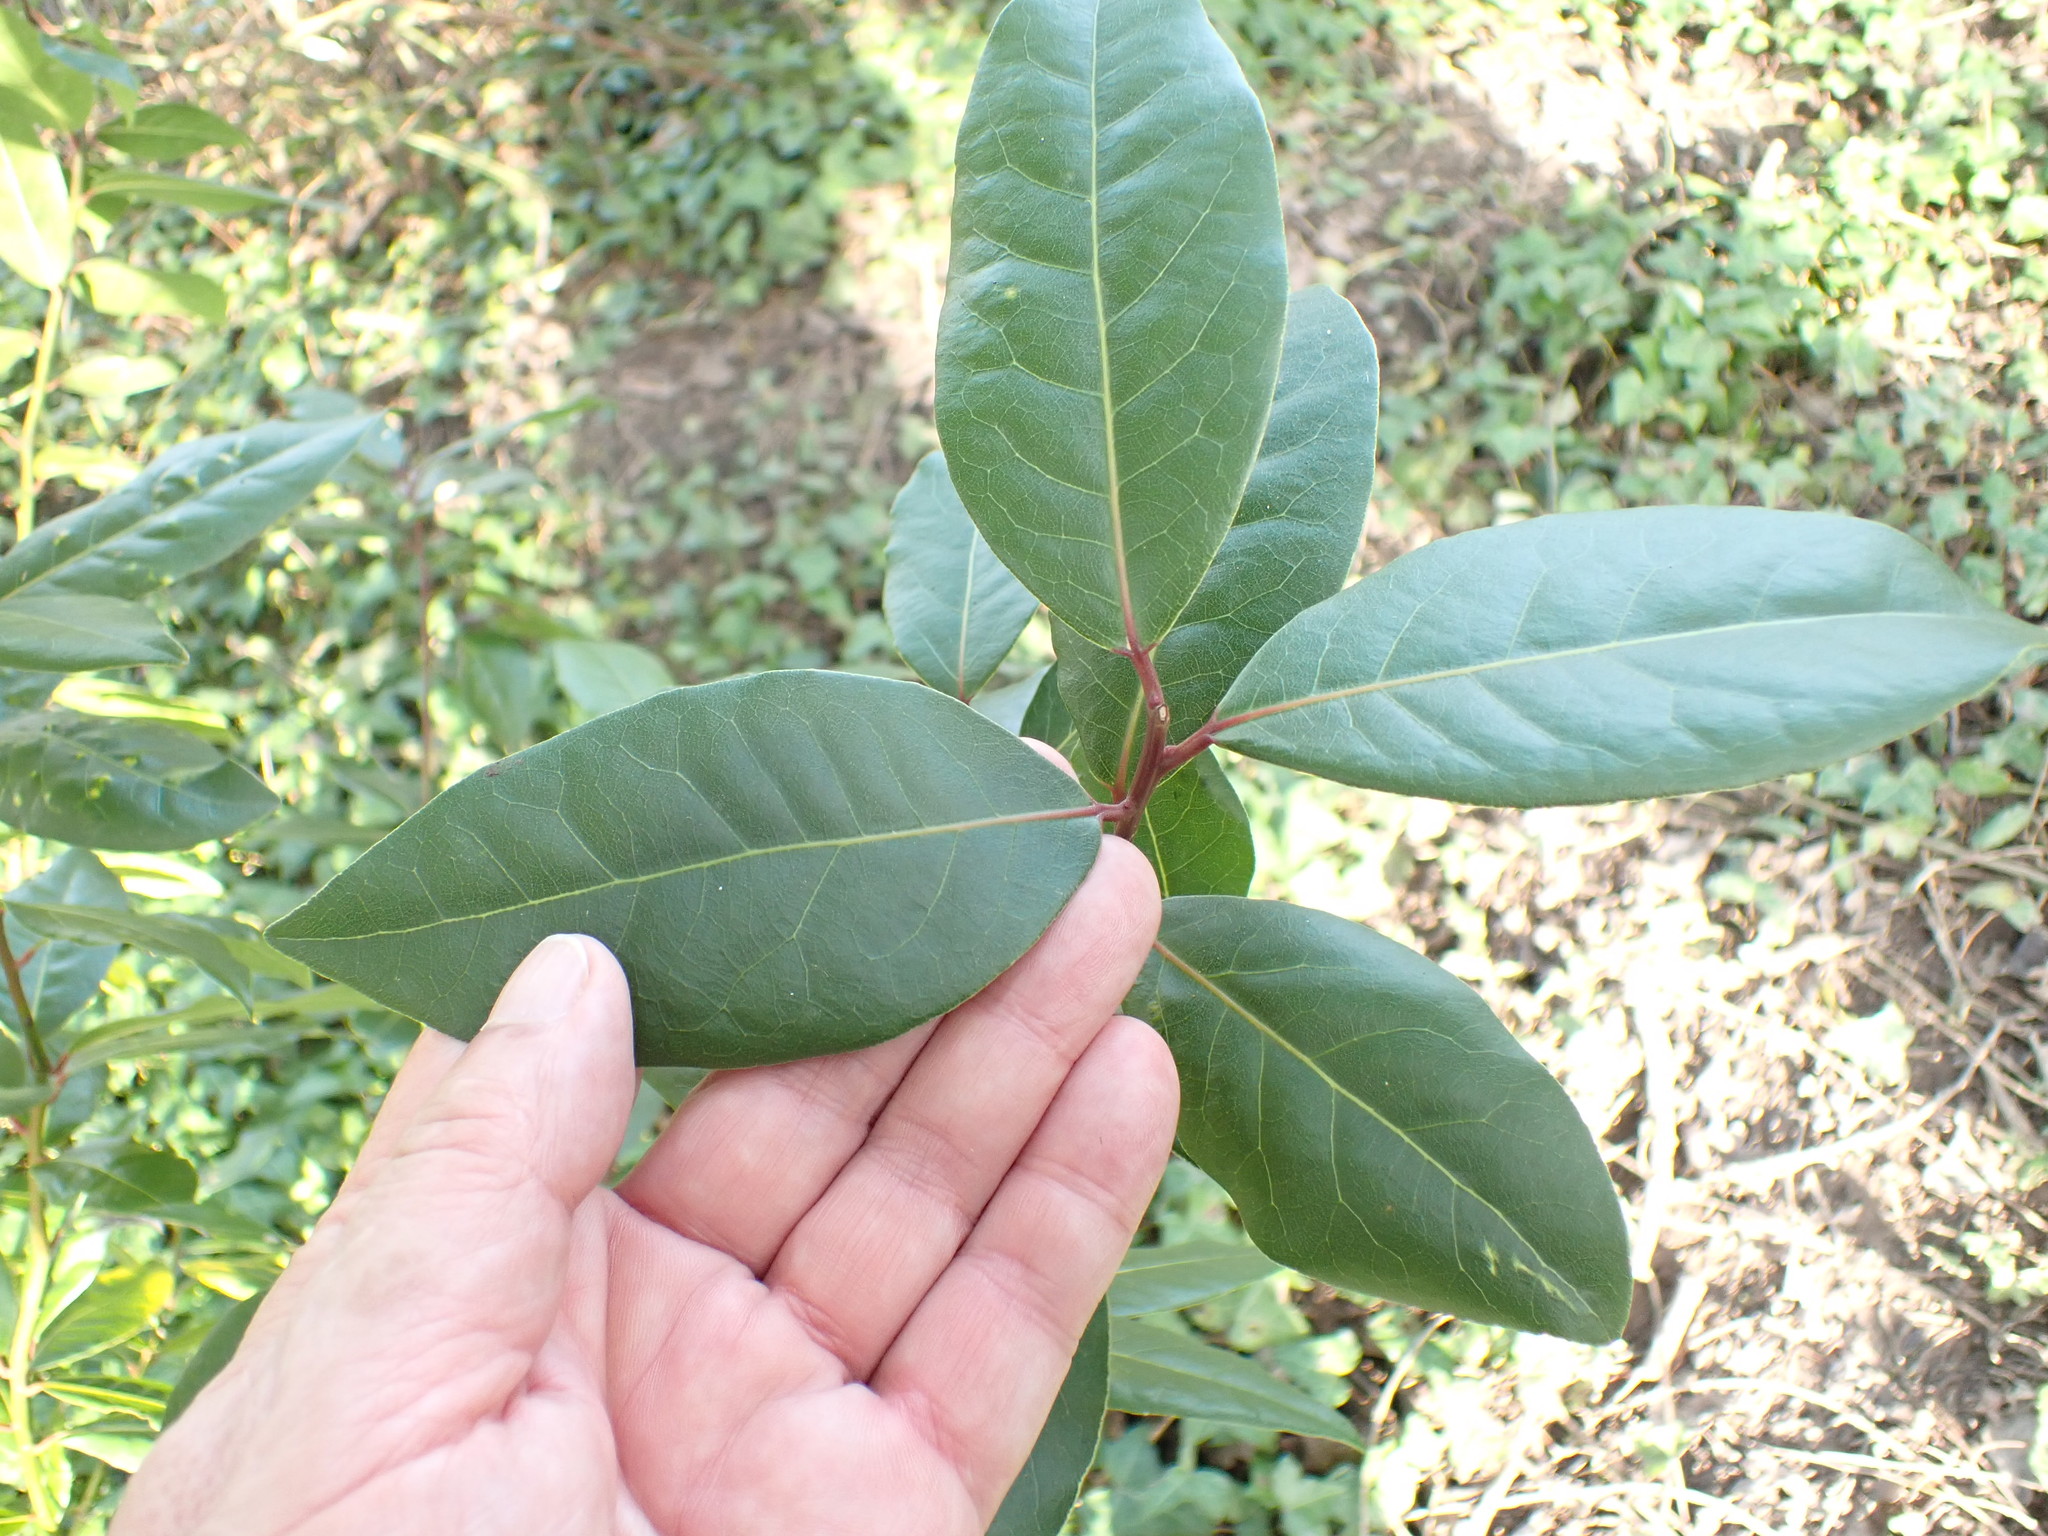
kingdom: Plantae
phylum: Tracheophyta
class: Magnoliopsida
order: Laurales
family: Lauraceae
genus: Laurus
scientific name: Laurus nobilis
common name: Bay
